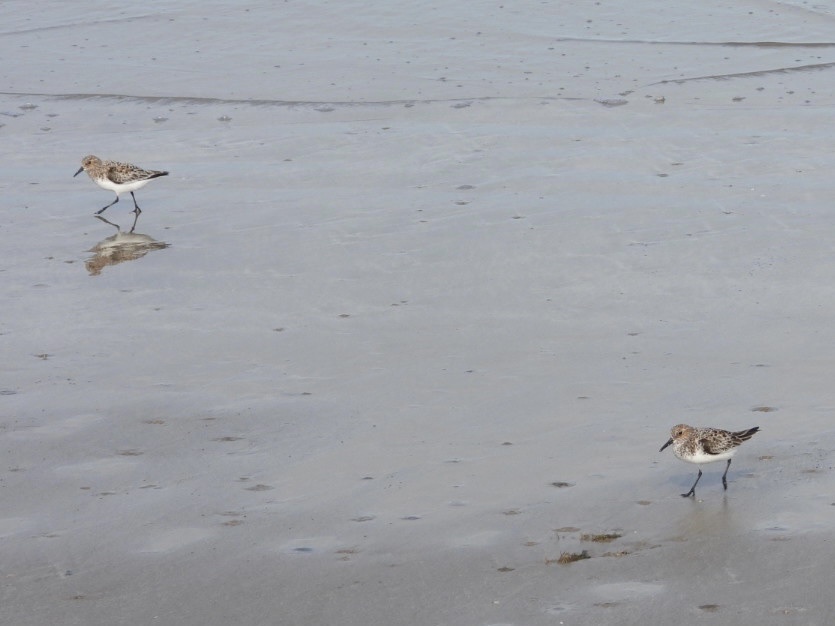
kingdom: Animalia
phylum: Chordata
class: Aves
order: Charadriiformes
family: Scolopacidae
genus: Calidris
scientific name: Calidris alba
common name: Sanderling
